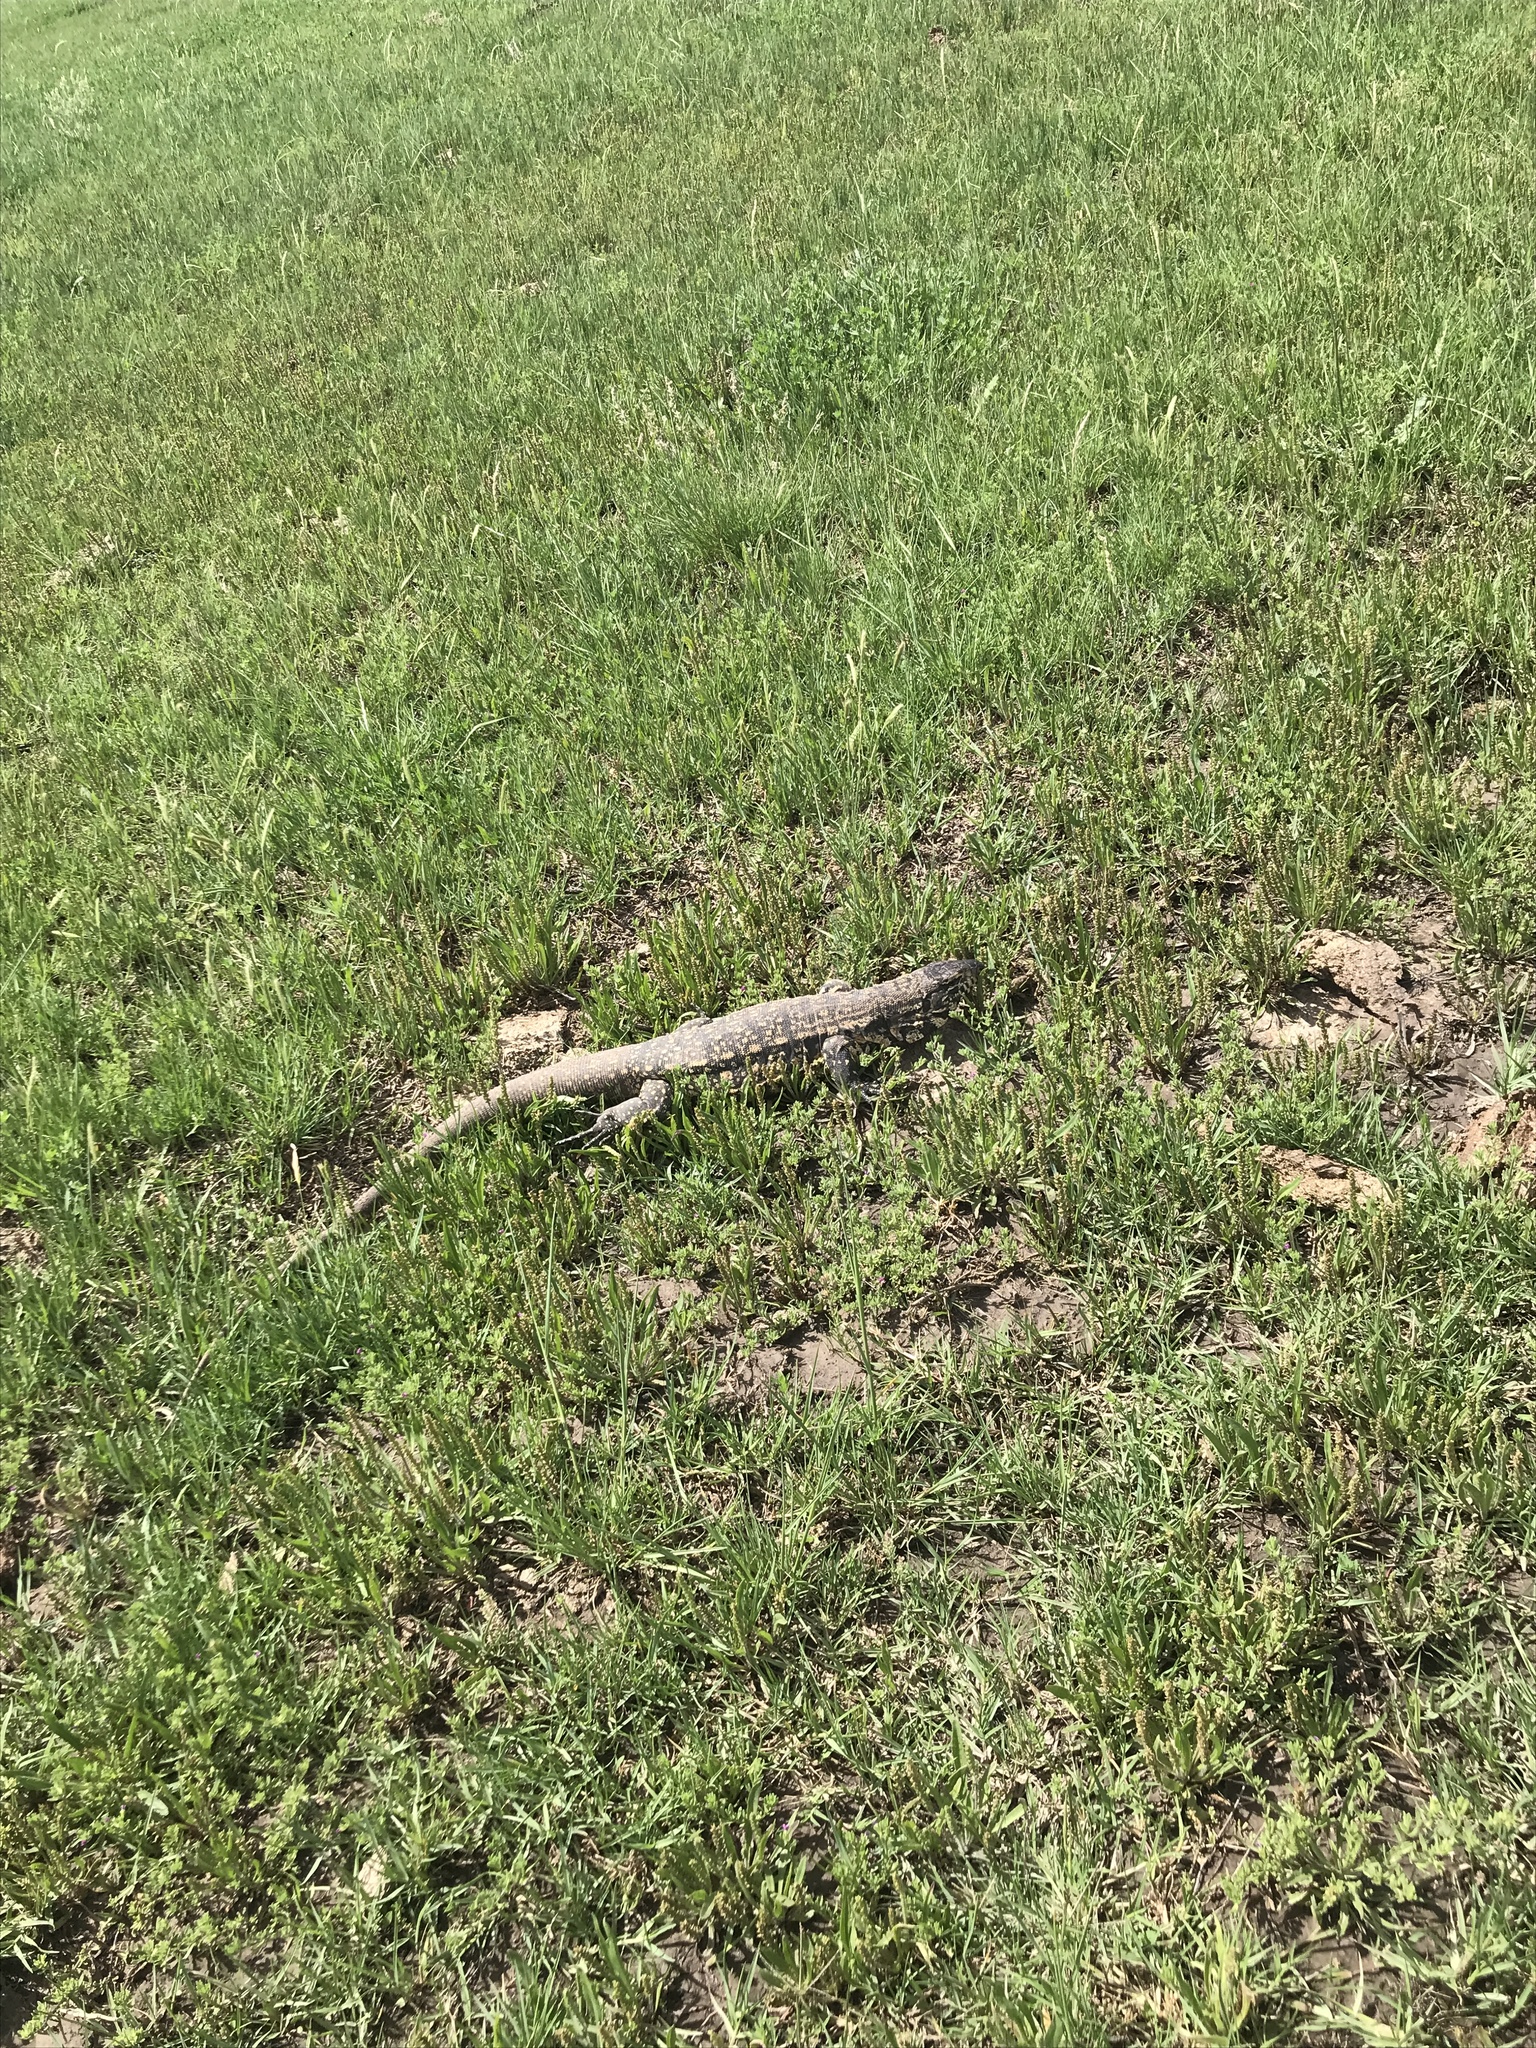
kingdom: Animalia
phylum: Chordata
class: Squamata
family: Teiidae
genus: Salvator
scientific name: Salvator merianae
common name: Argentine black and white tegu
